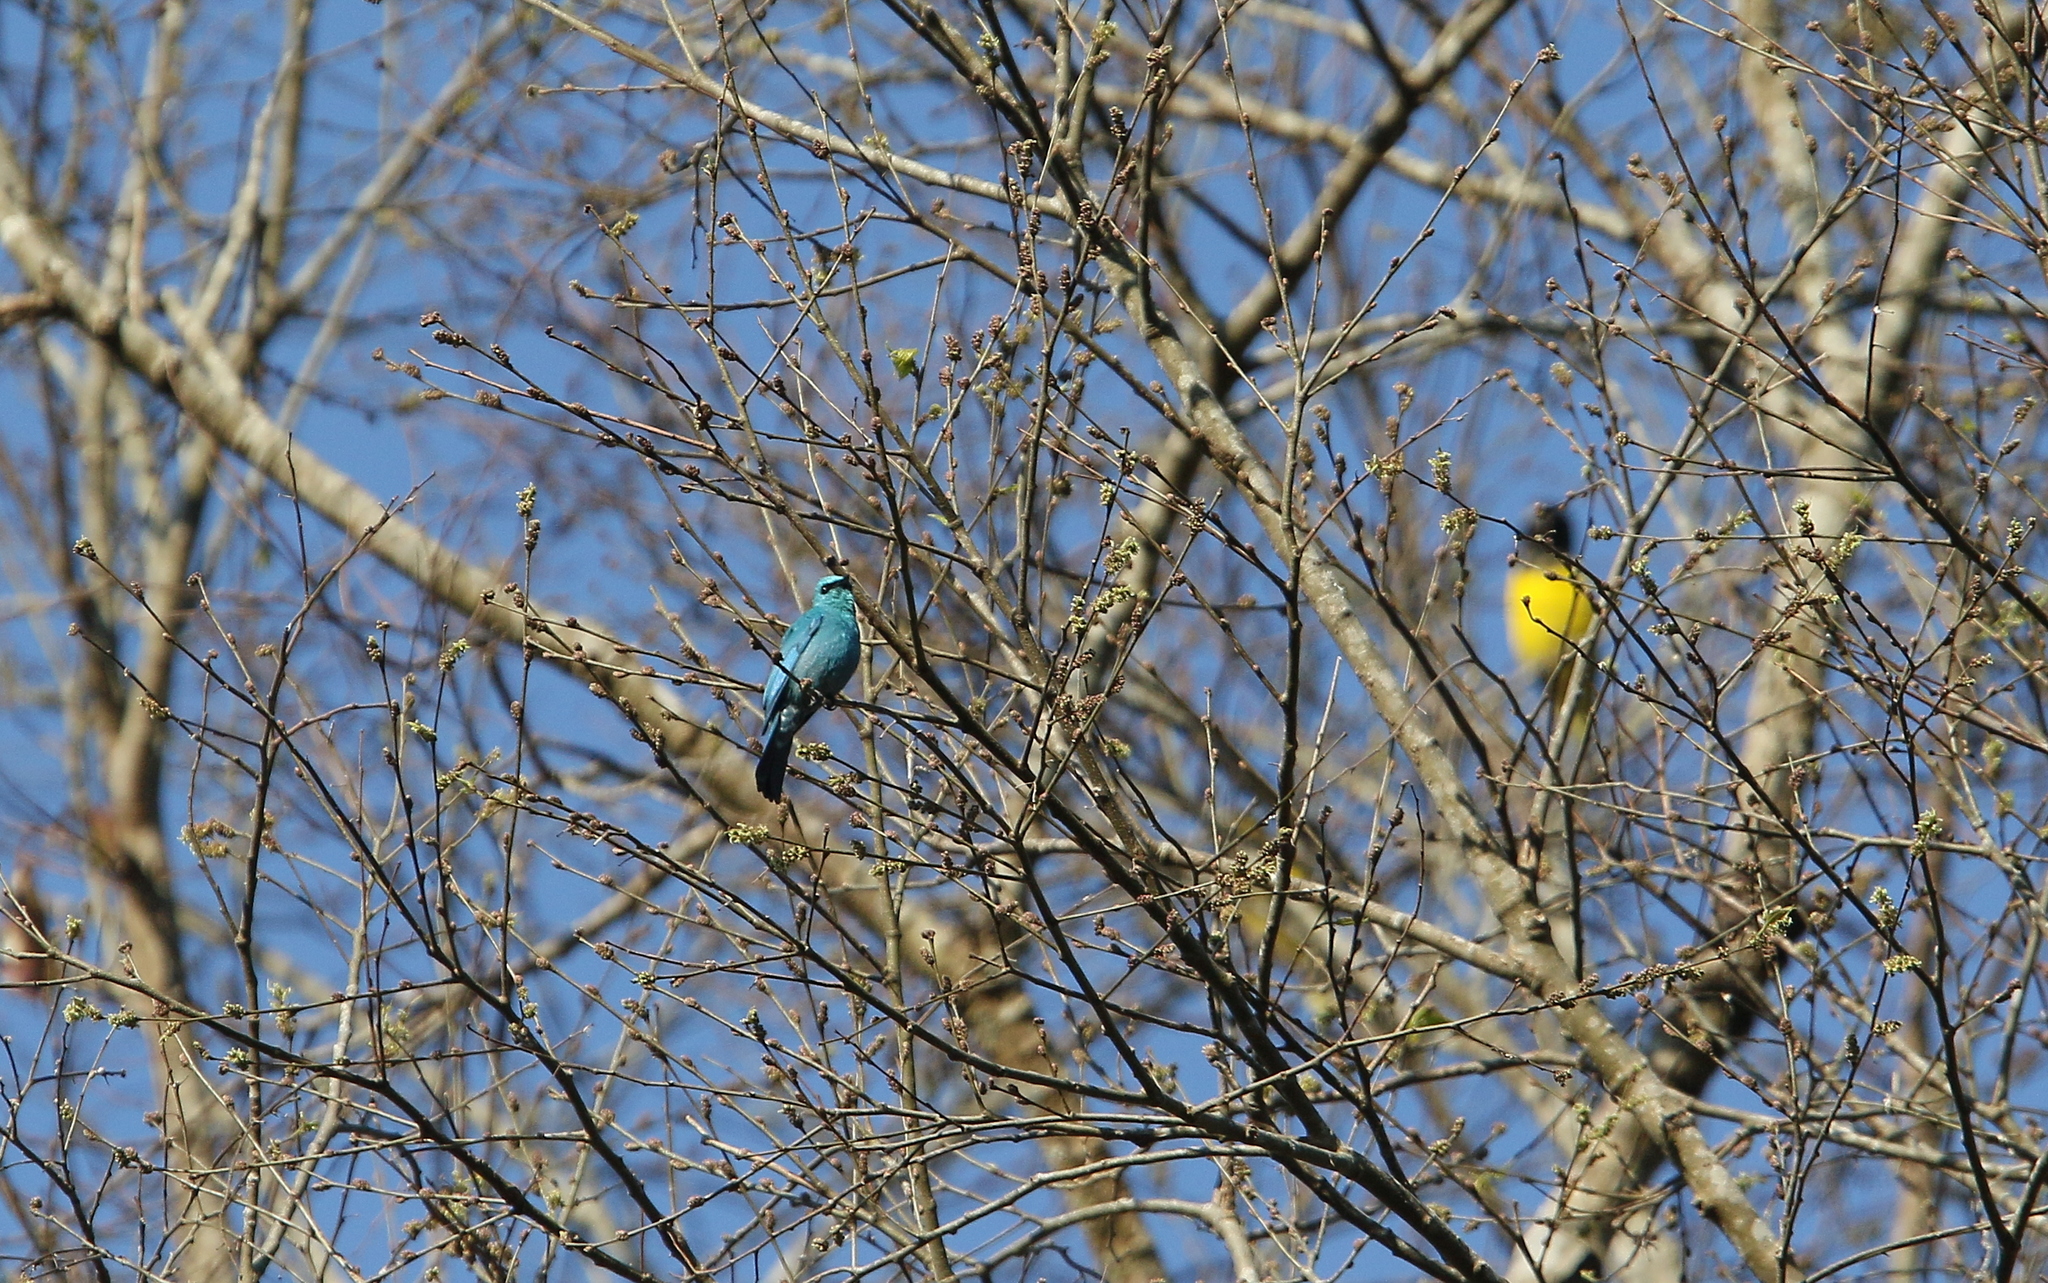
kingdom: Animalia
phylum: Chordata
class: Aves
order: Passeriformes
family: Muscicapidae
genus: Eumyias
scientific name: Eumyias thalassinus
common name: Verditer flycatcher
